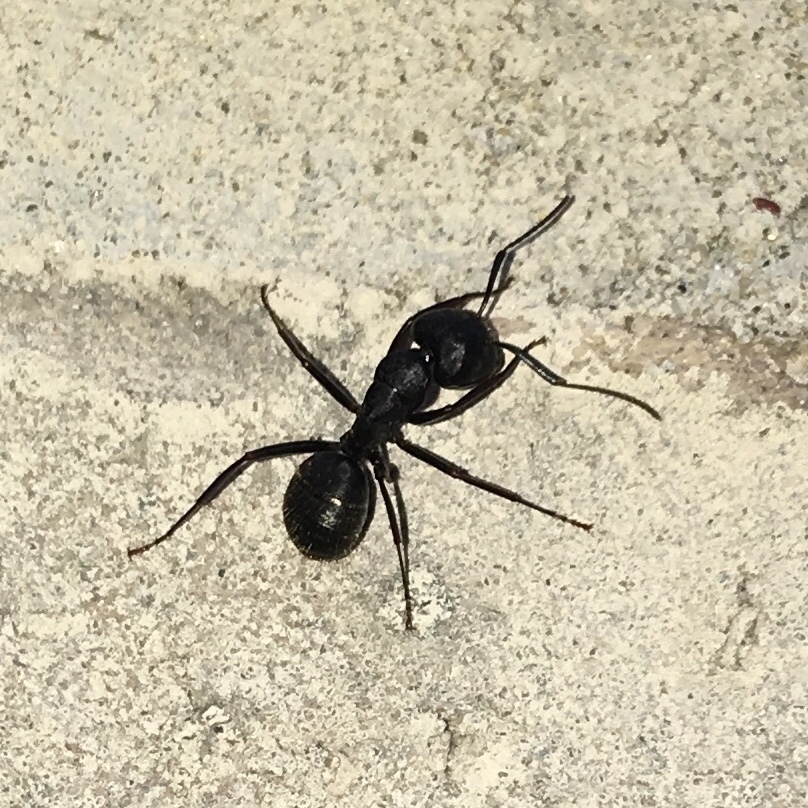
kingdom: Animalia
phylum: Arthropoda
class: Insecta
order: Hymenoptera
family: Formicidae
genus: Camponotus
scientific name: Camponotus pennsylvanicus
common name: Black carpenter ant
